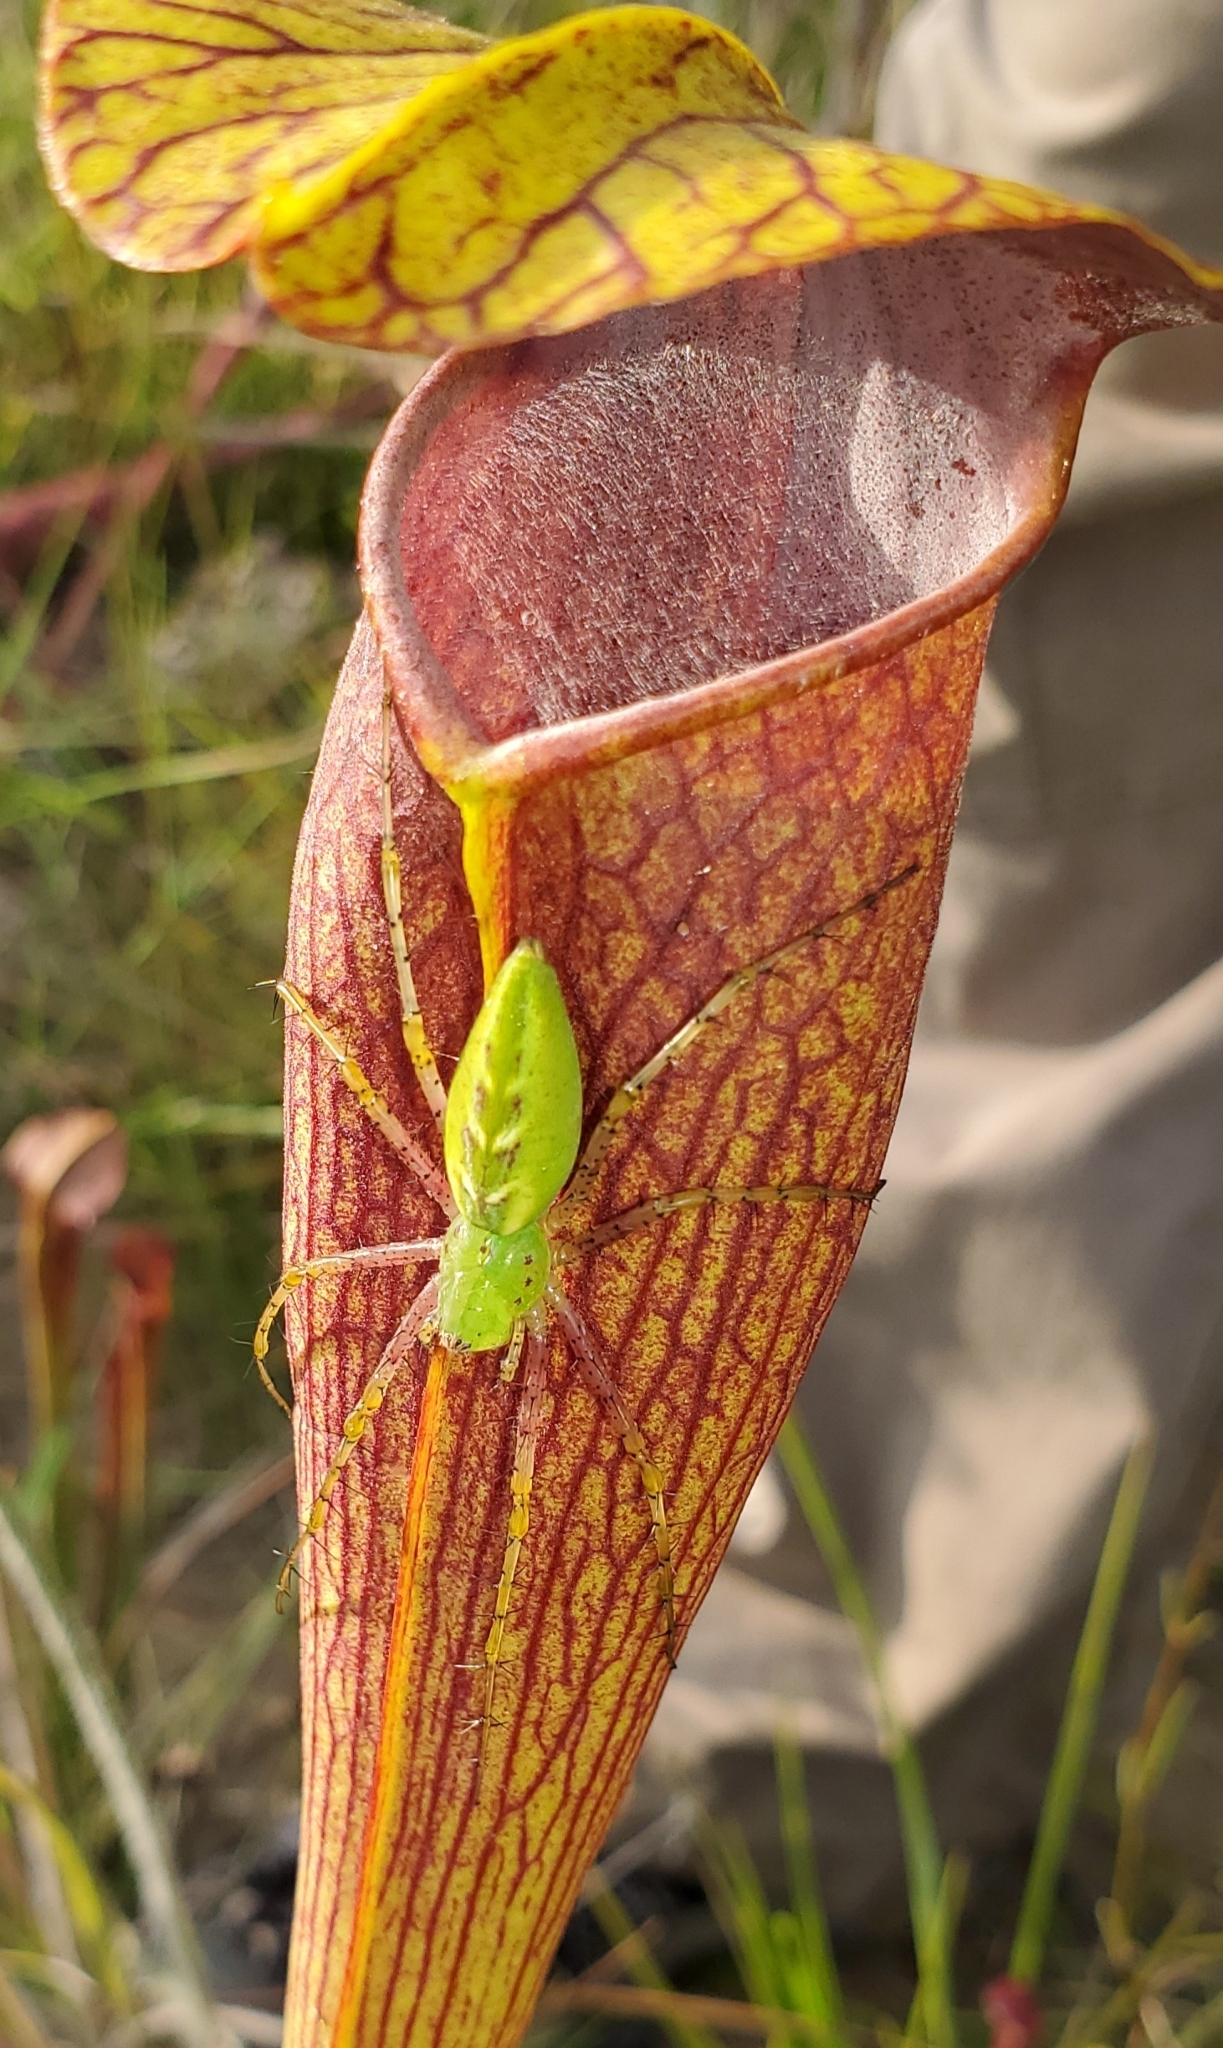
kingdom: Animalia
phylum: Arthropoda
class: Arachnida
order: Araneae
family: Oxyopidae
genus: Peucetia
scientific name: Peucetia viridans
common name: Lynx spiders
